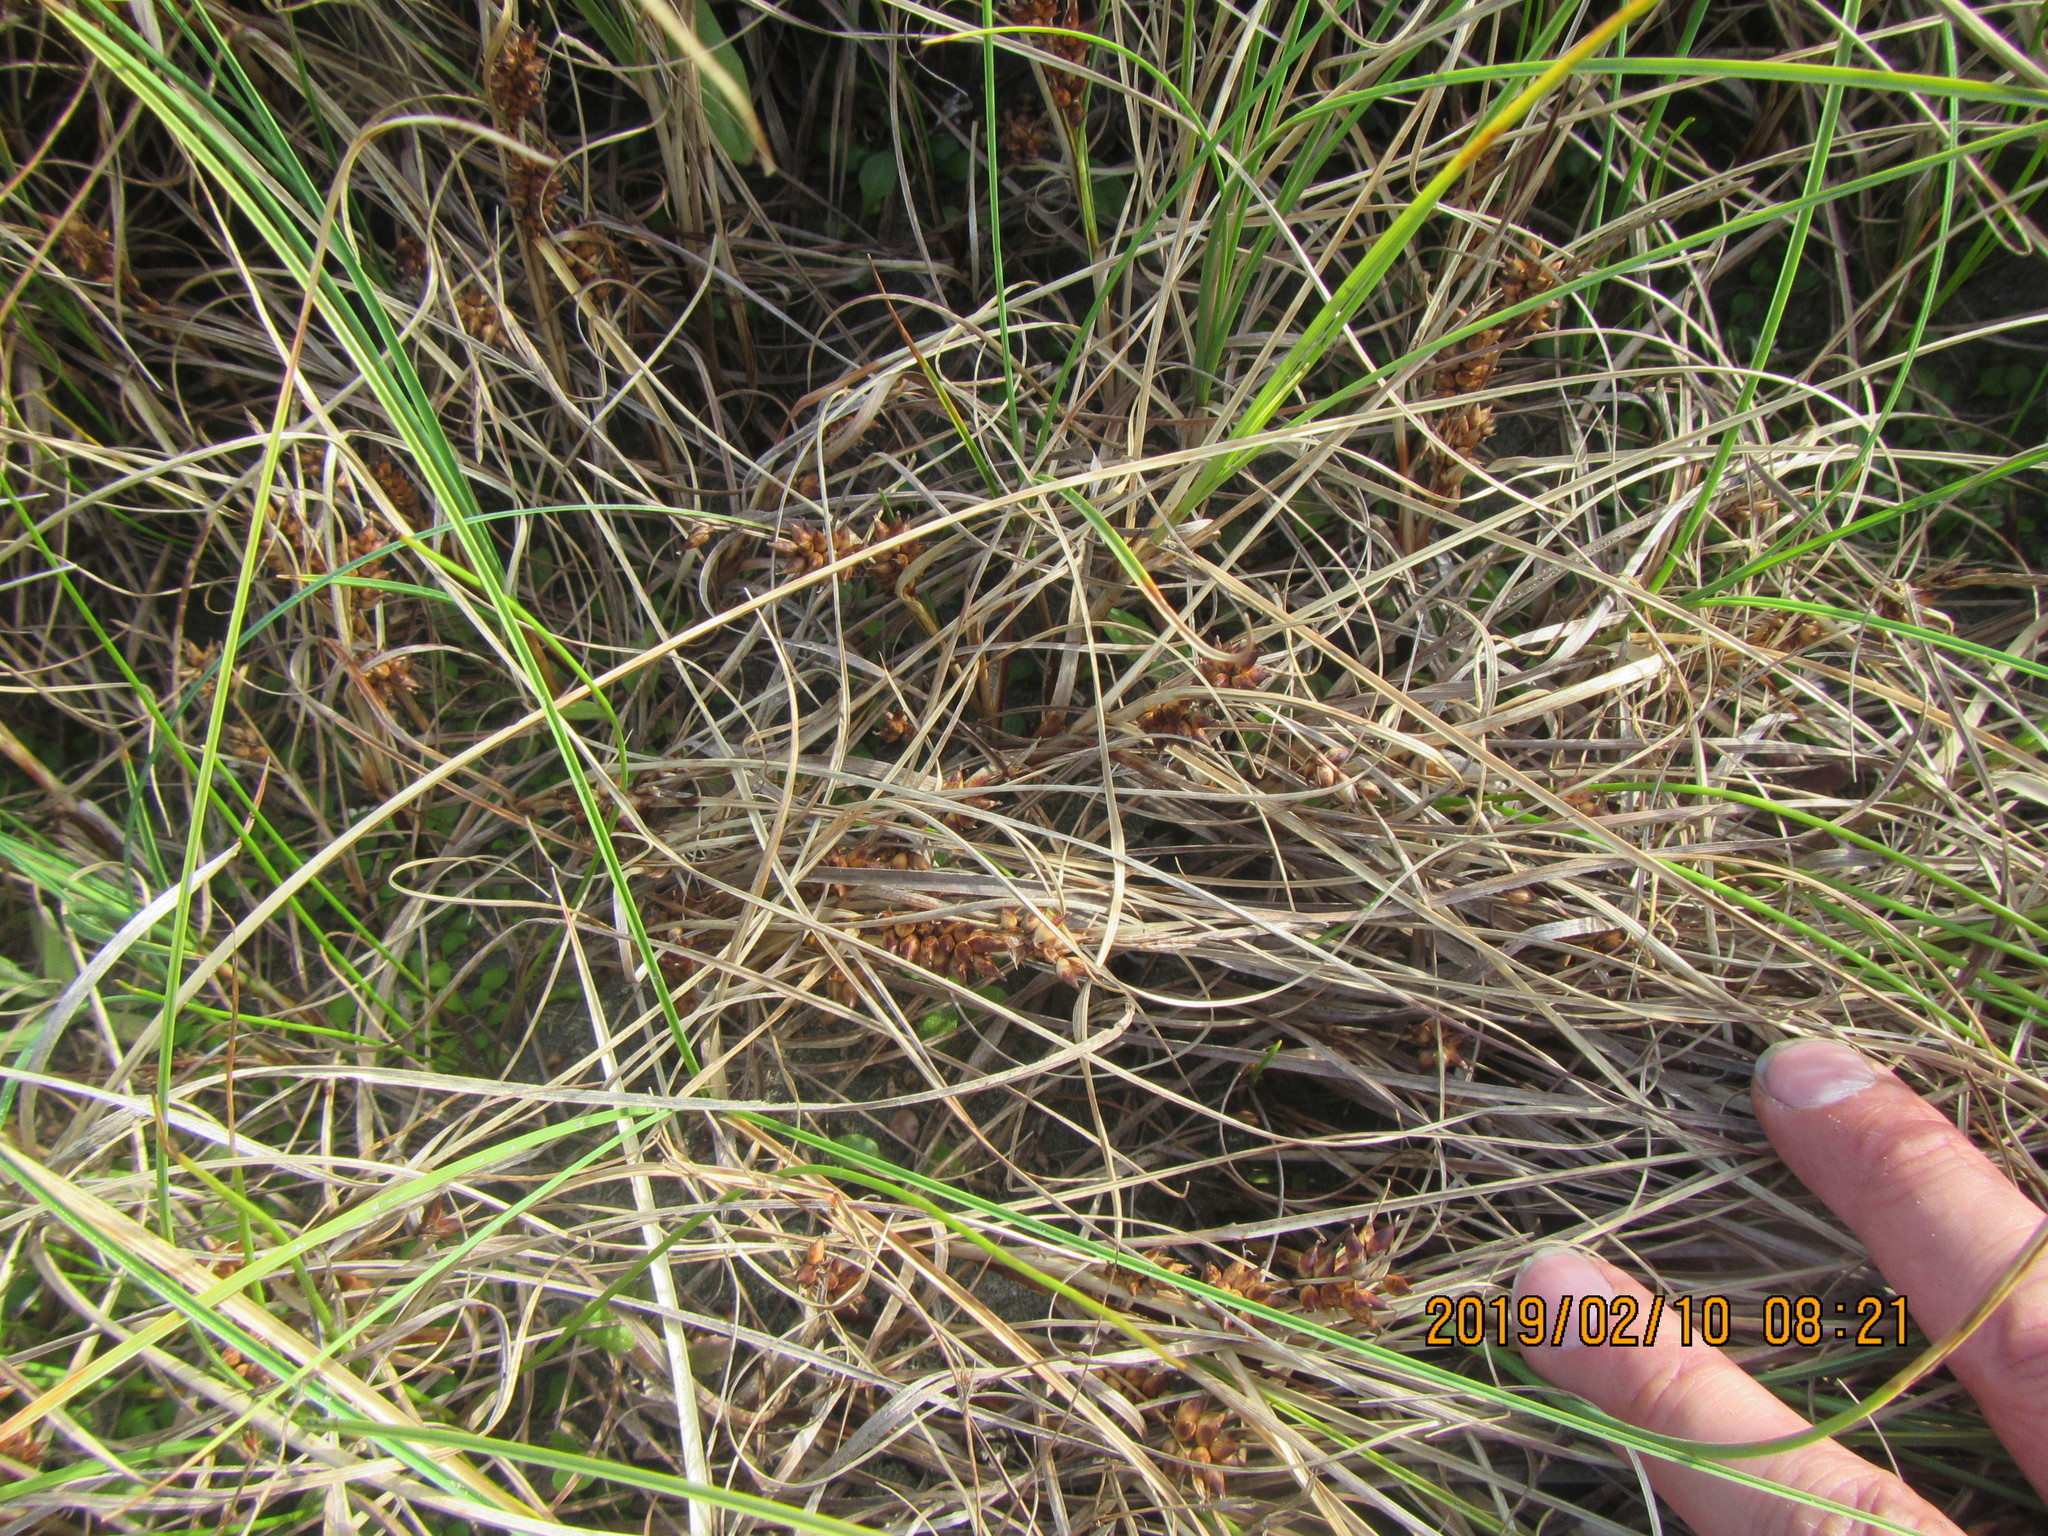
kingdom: Plantae
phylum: Tracheophyta
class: Liliopsida
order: Poales
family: Cyperaceae
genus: Carex
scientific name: Carex pumila
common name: Dwarf sedge
